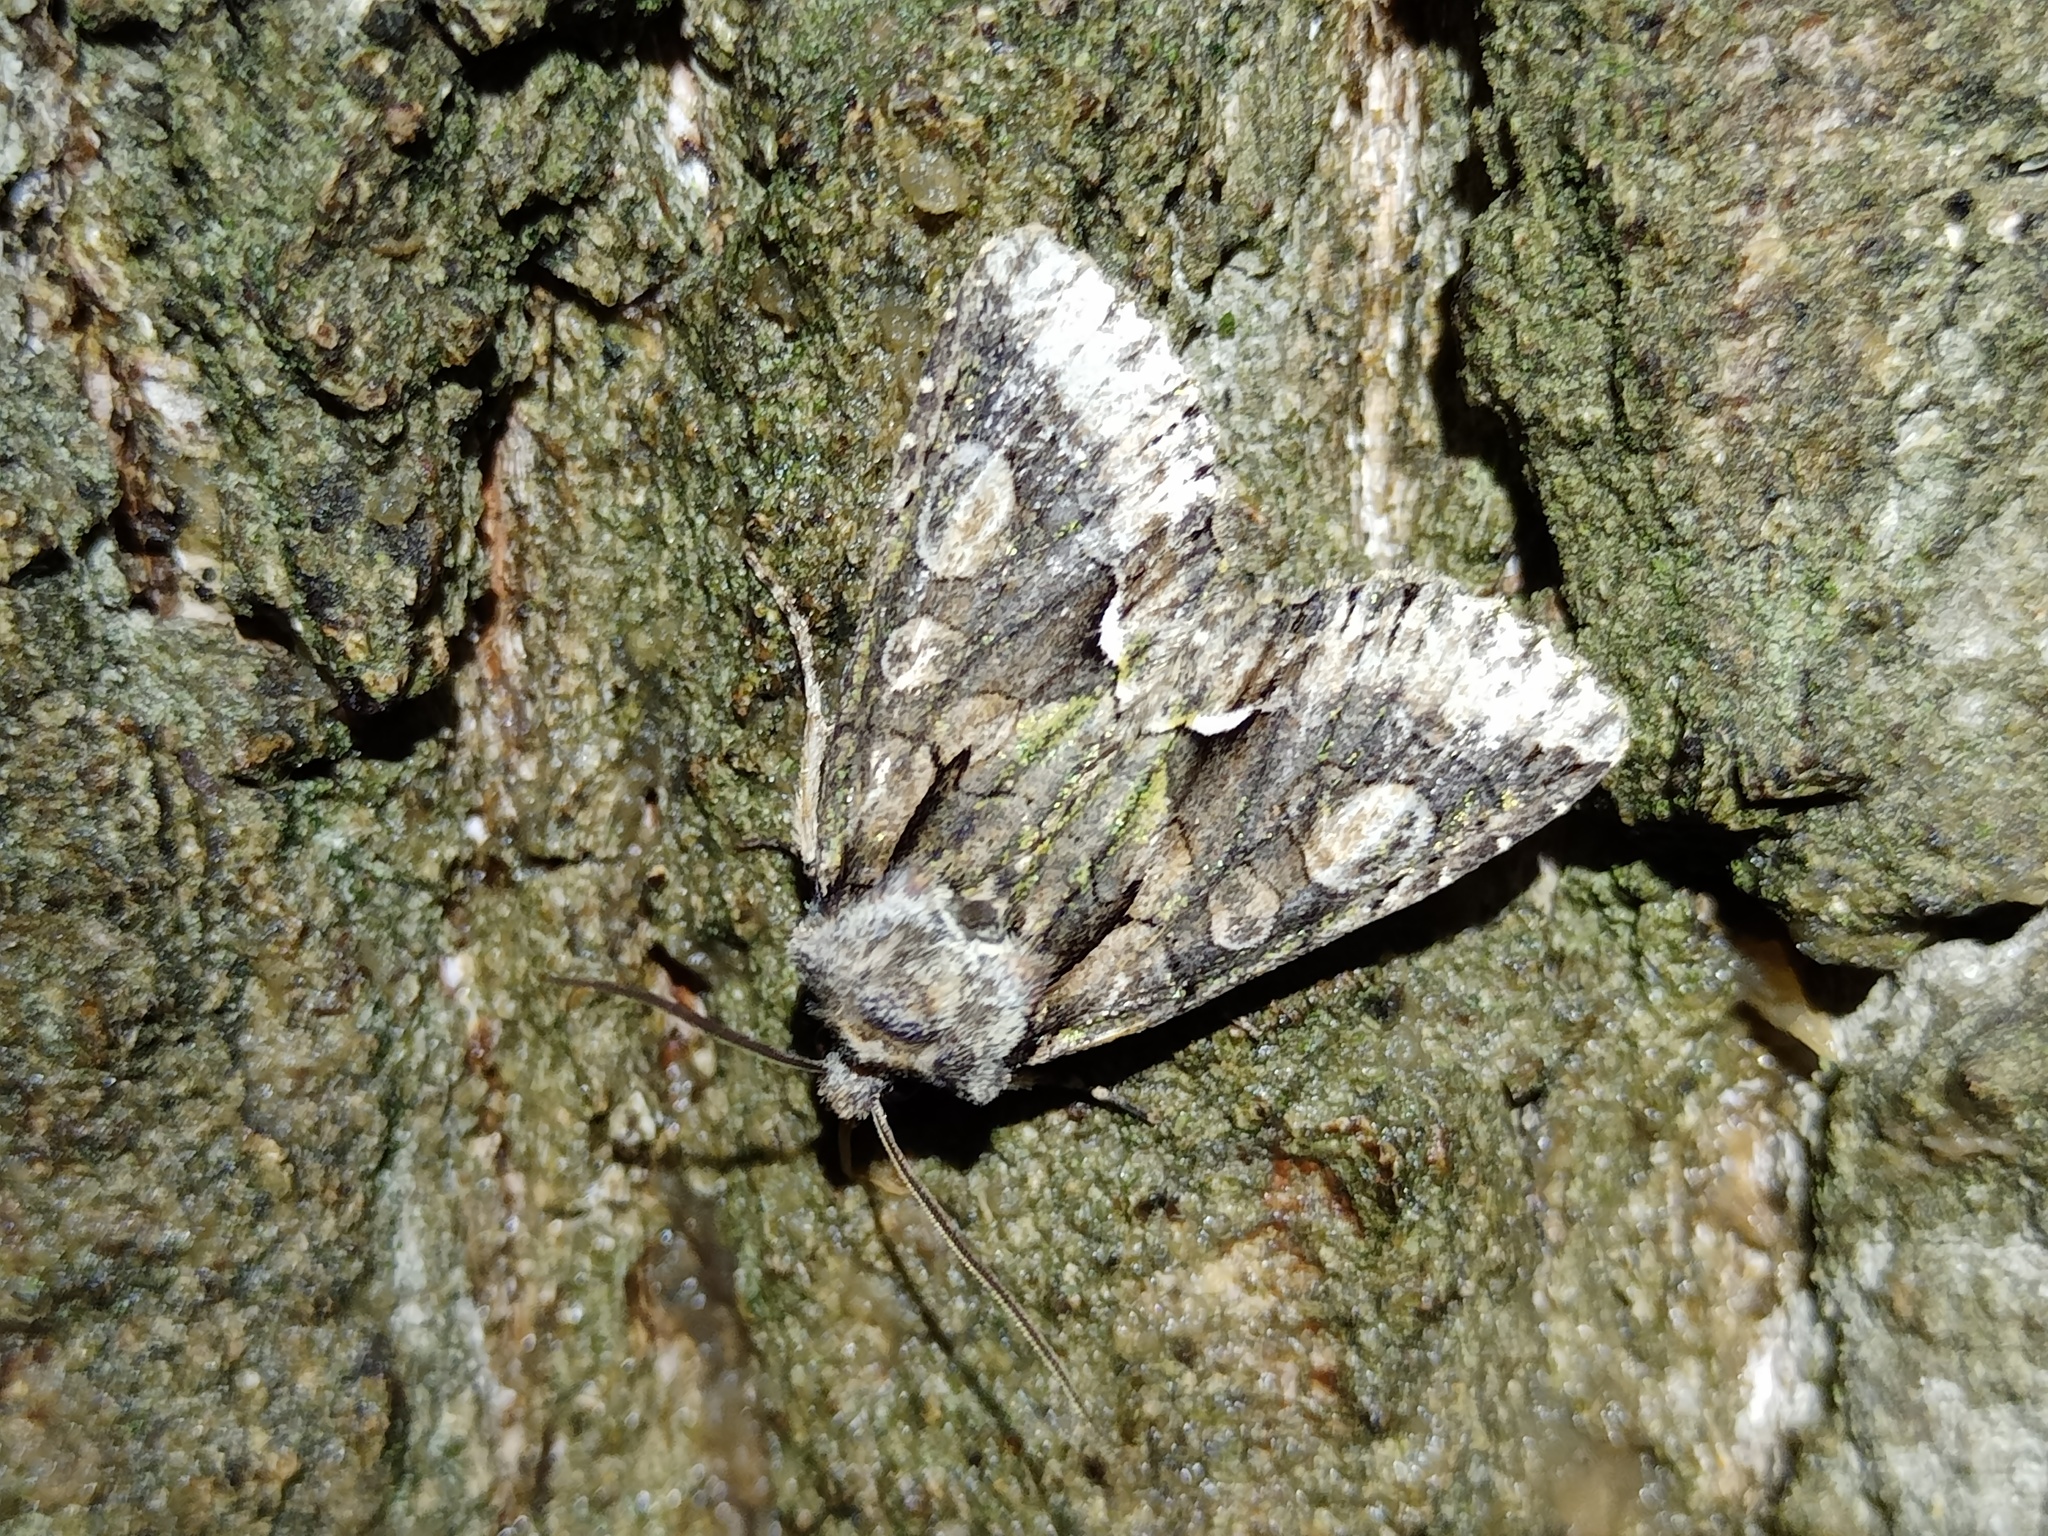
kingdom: Animalia
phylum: Arthropoda
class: Insecta
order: Lepidoptera
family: Noctuidae
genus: Allophyes
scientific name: Allophyes oxyacanthae
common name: Green-brindled crescent
